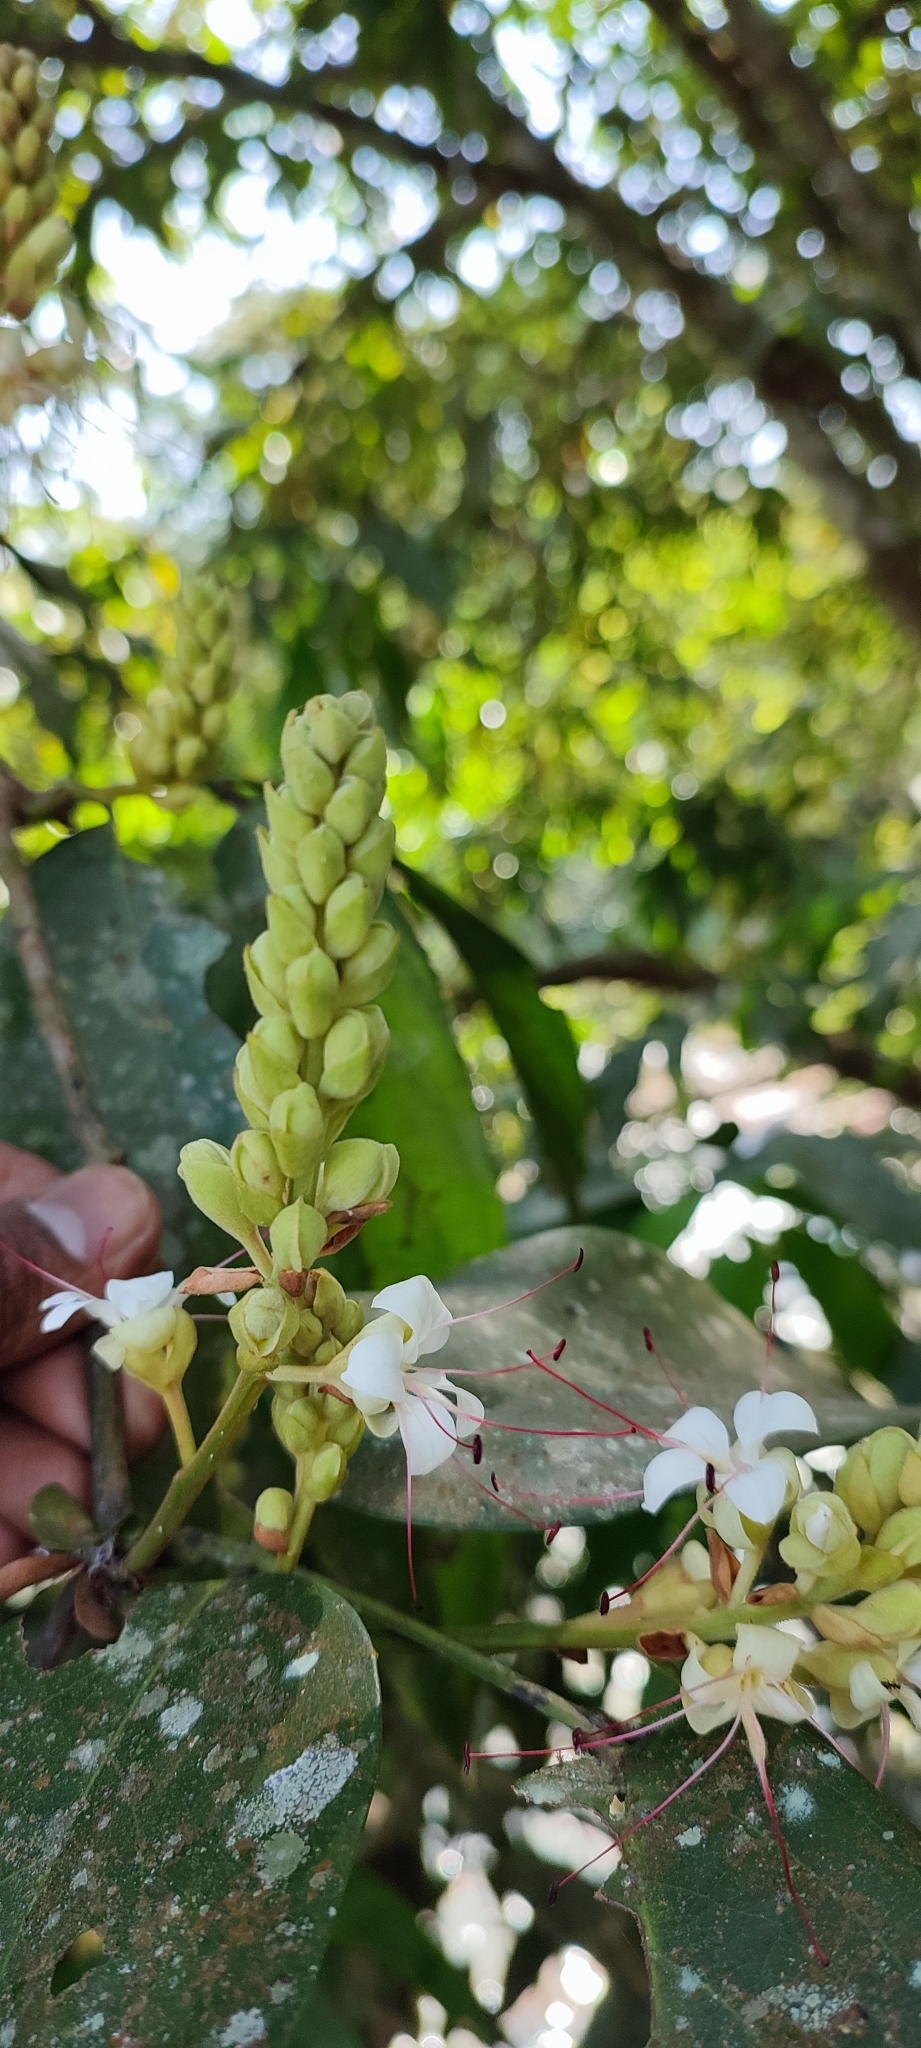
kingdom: Plantae
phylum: Tracheophyta
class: Magnoliopsida
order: Fabales
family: Fabaceae
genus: Humboldtia
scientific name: Humboldtia vahliana
